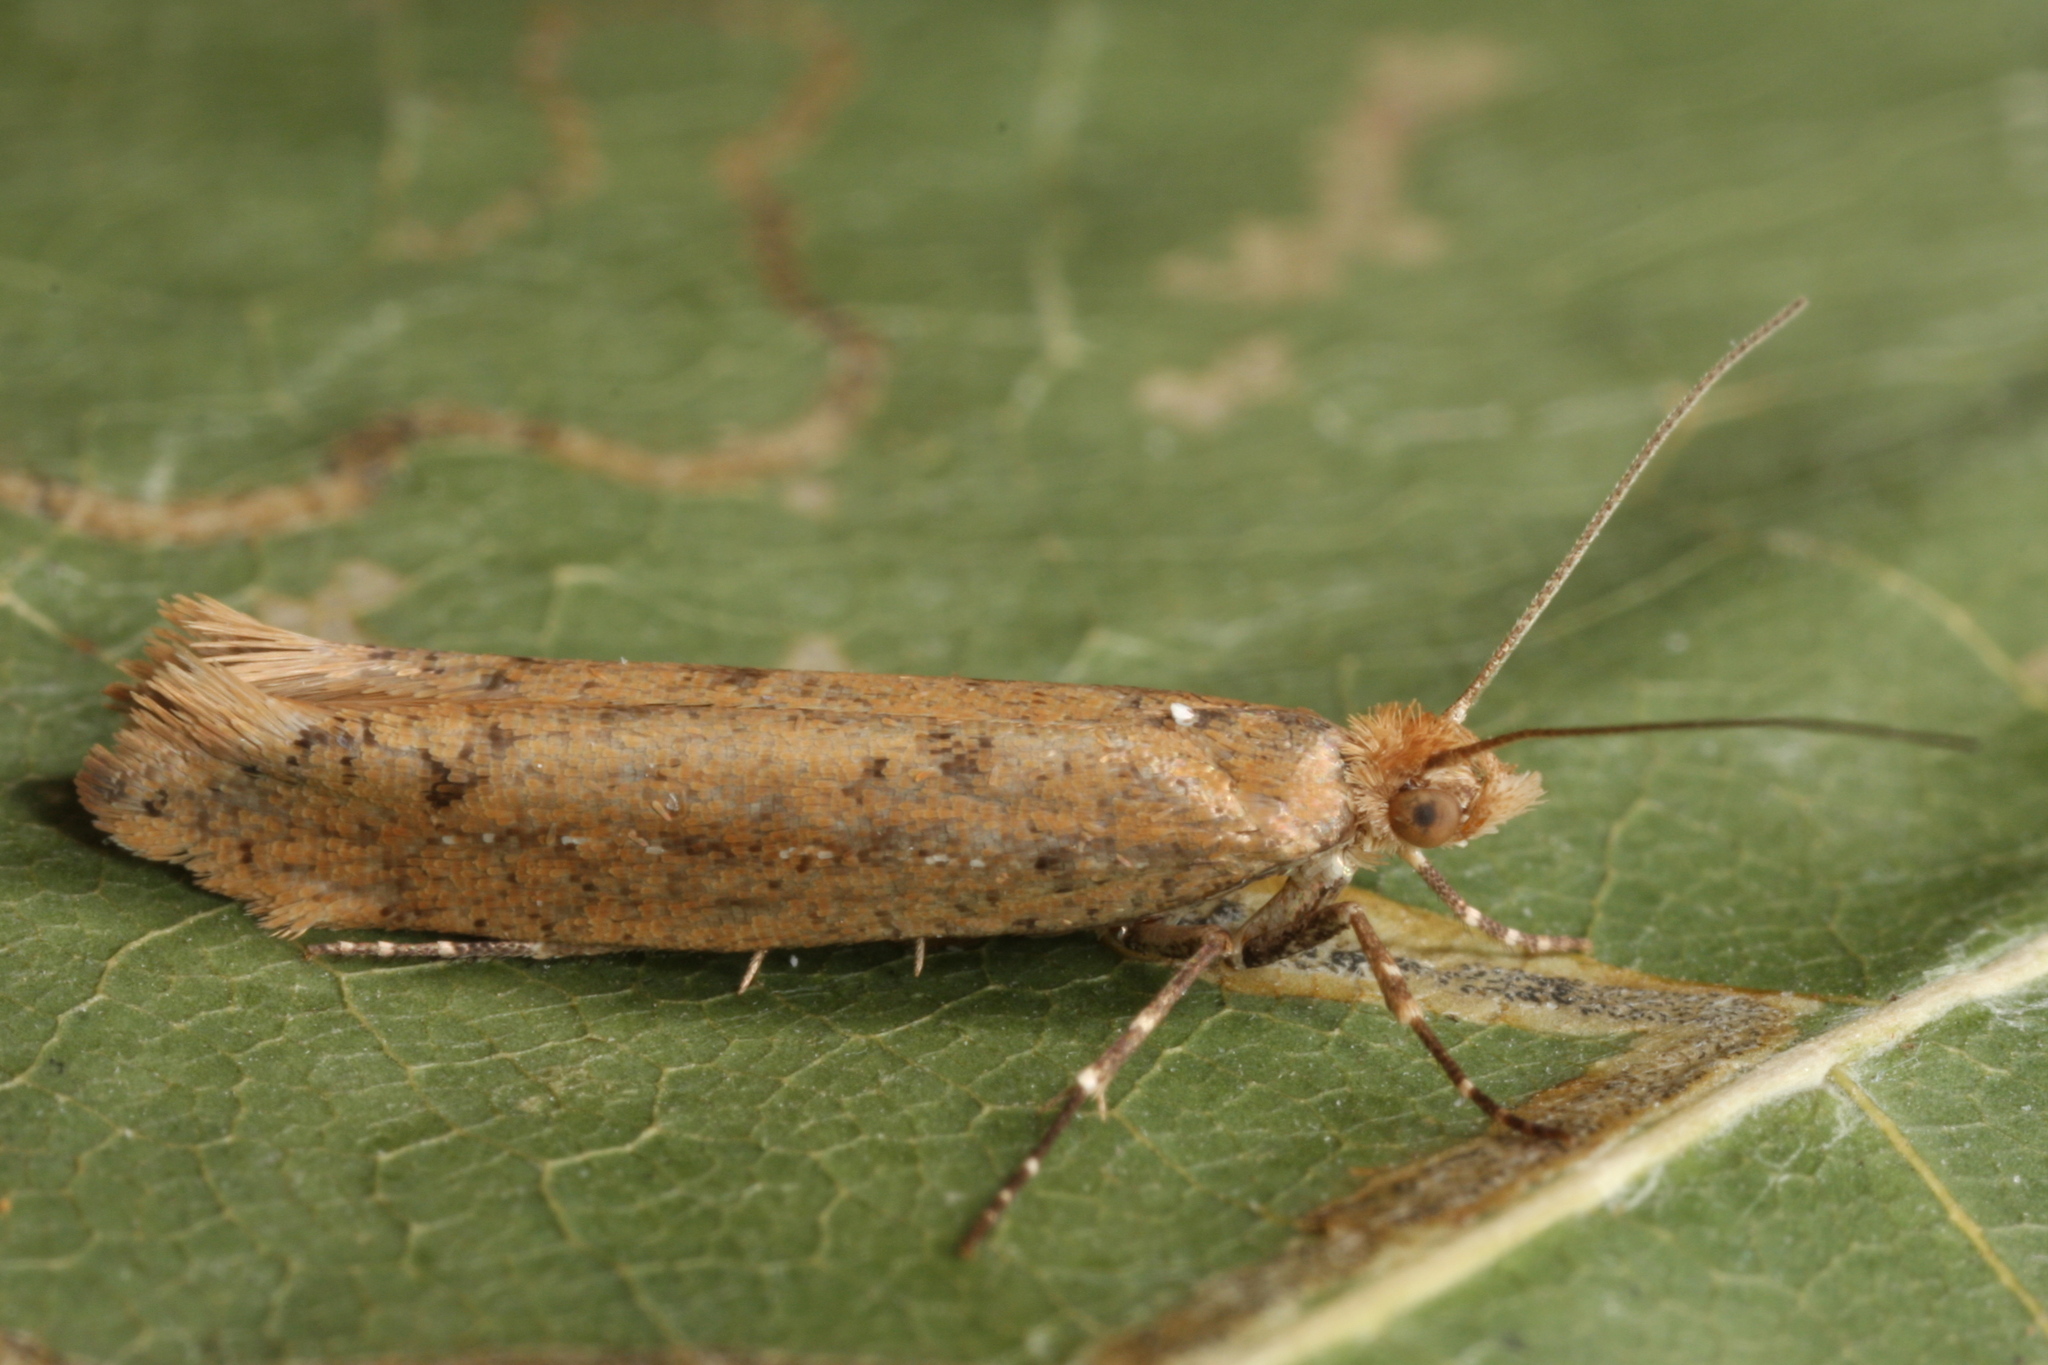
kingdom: Animalia
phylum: Arthropoda
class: Insecta
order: Lepidoptera
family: Plutellidae
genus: Ypsolophus
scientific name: Ypsolophus ustella
